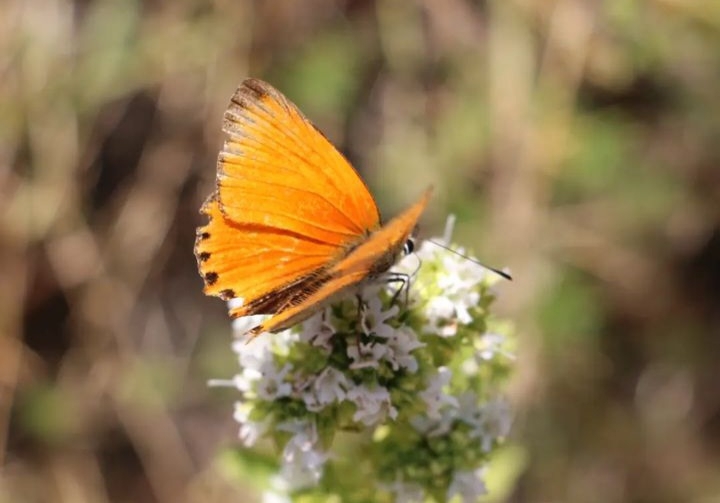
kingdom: Animalia
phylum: Arthropoda
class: Insecta
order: Lepidoptera
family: Lycaenidae
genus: Sarthusia
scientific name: Sarthusia sarthus
